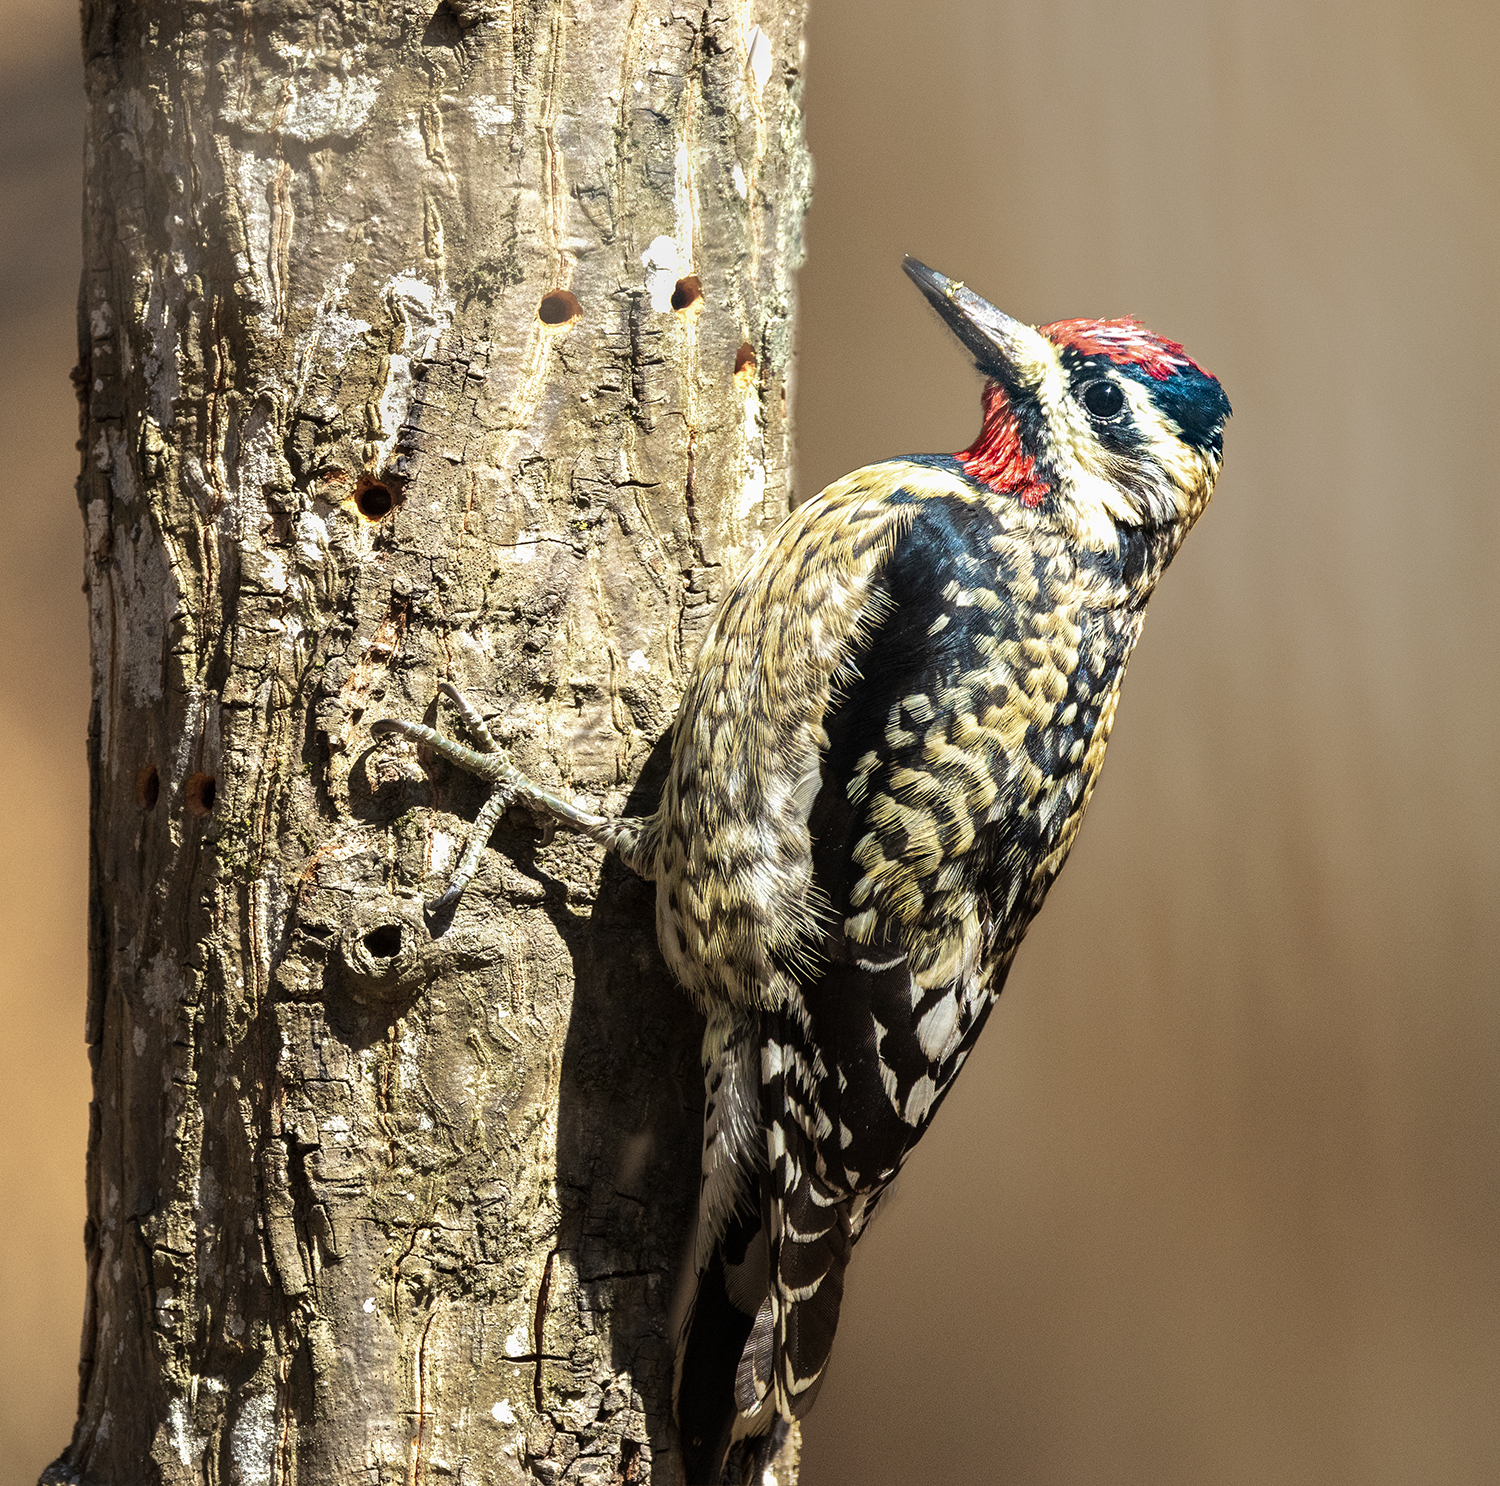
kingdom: Animalia
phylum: Chordata
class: Aves
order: Piciformes
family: Picidae
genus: Sphyrapicus
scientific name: Sphyrapicus varius
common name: Yellow-bellied sapsucker
